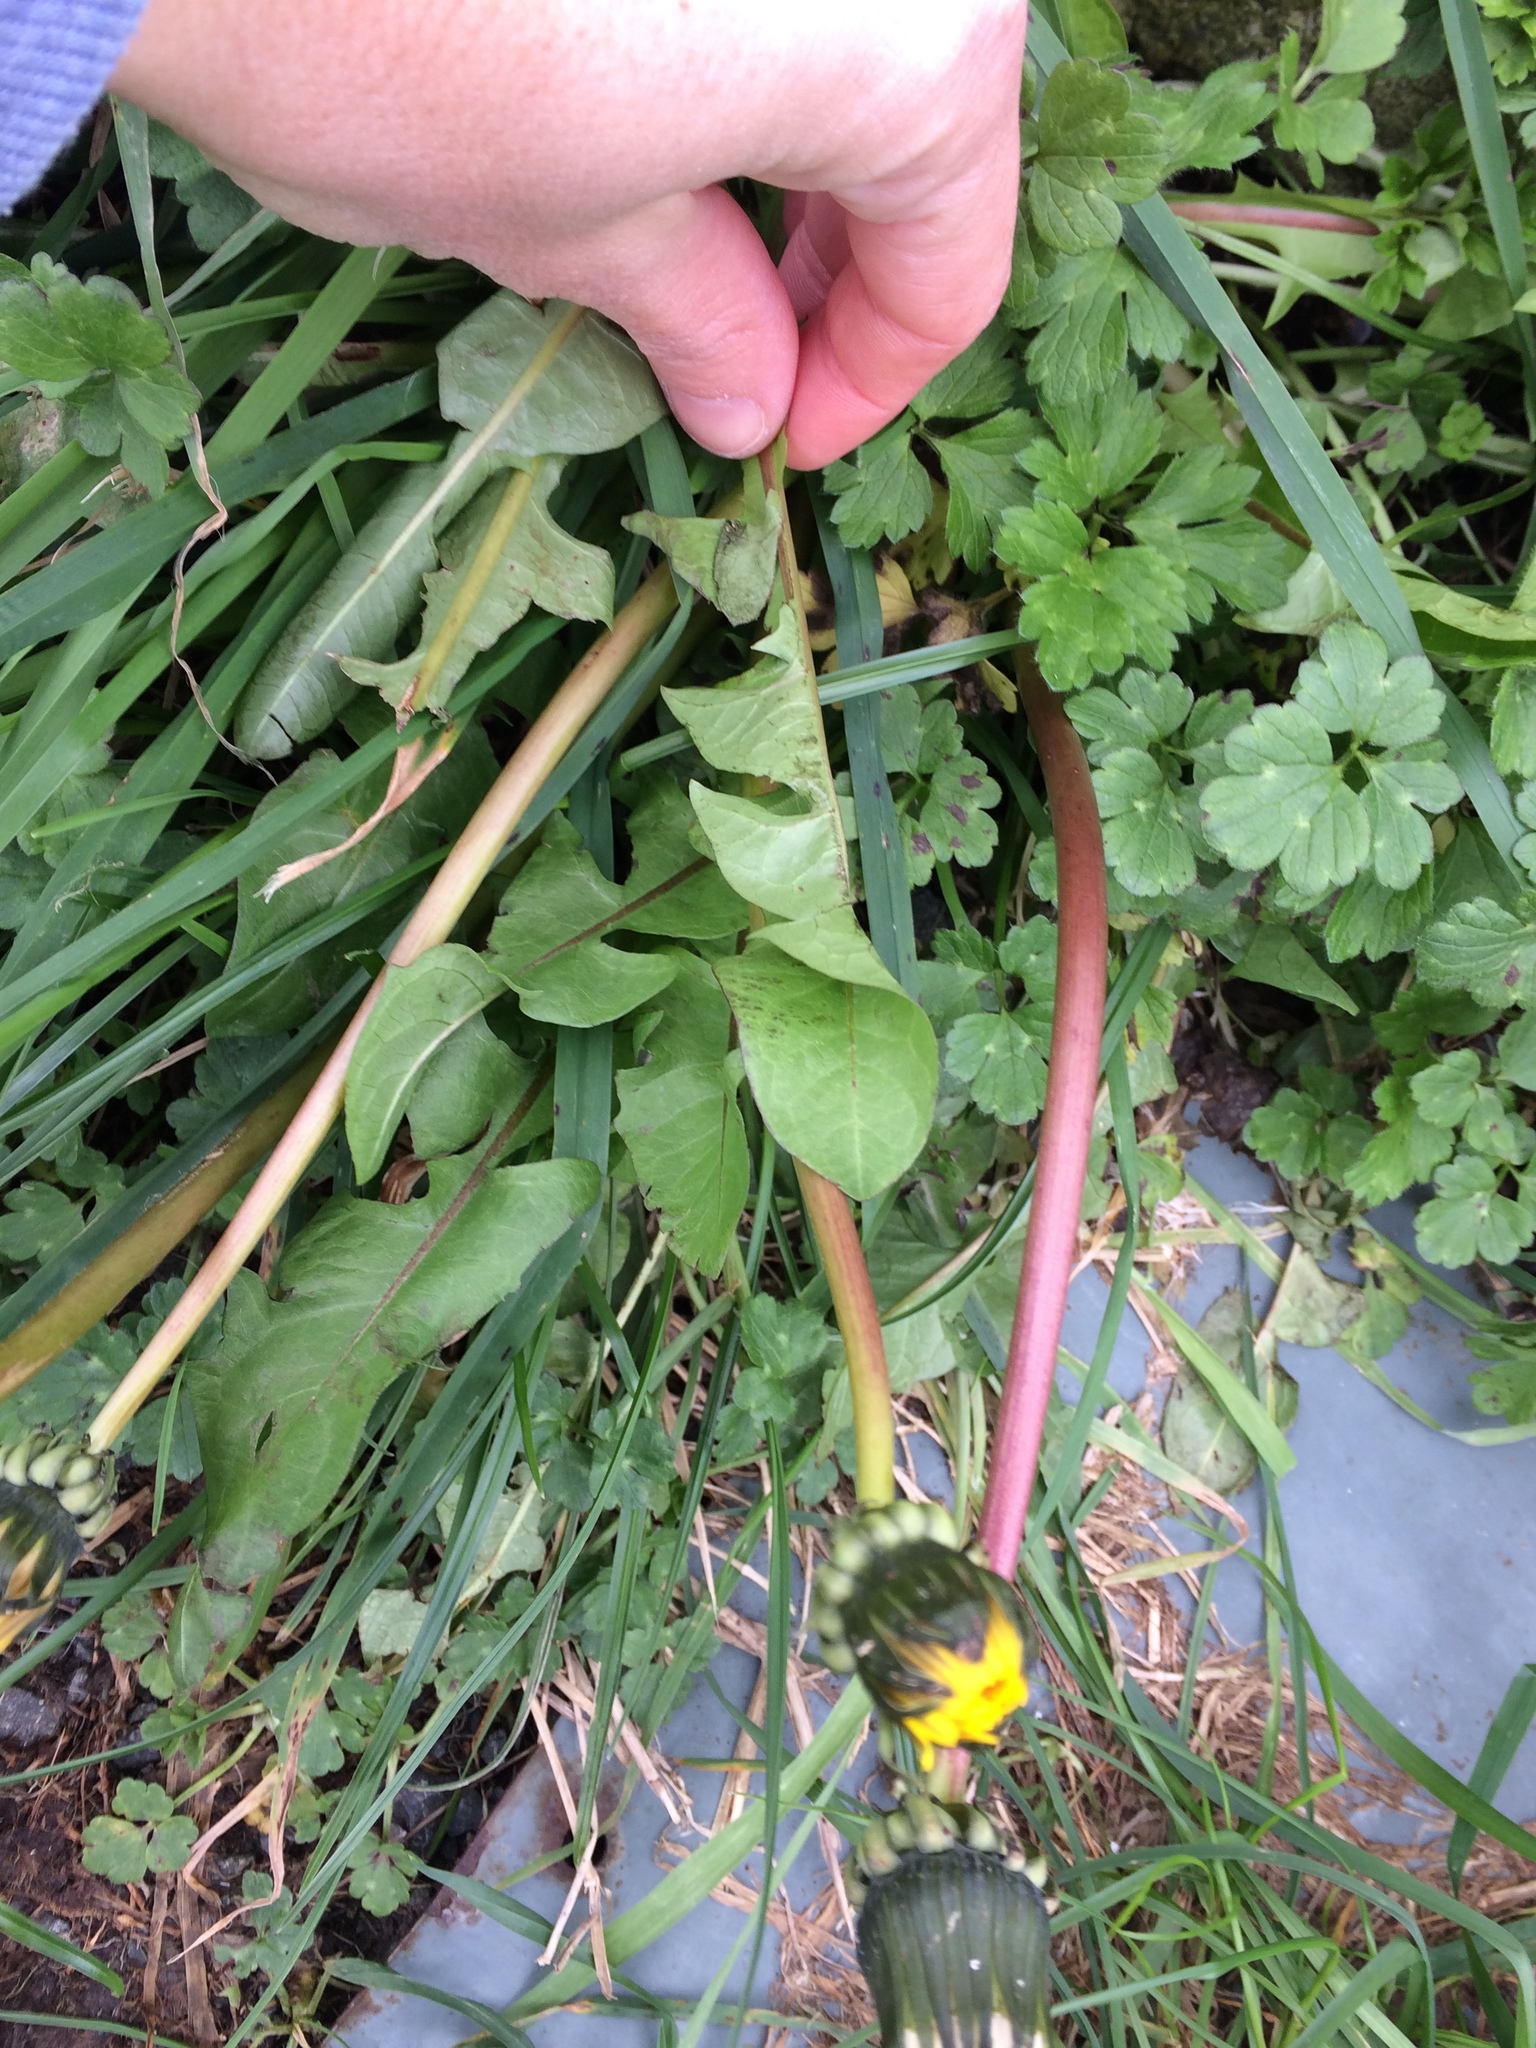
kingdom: Plantae
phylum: Tracheophyta
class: Magnoliopsida
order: Asterales
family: Asteraceae
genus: Taraxacum
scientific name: Taraxacum officinale
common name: Common dandelion
